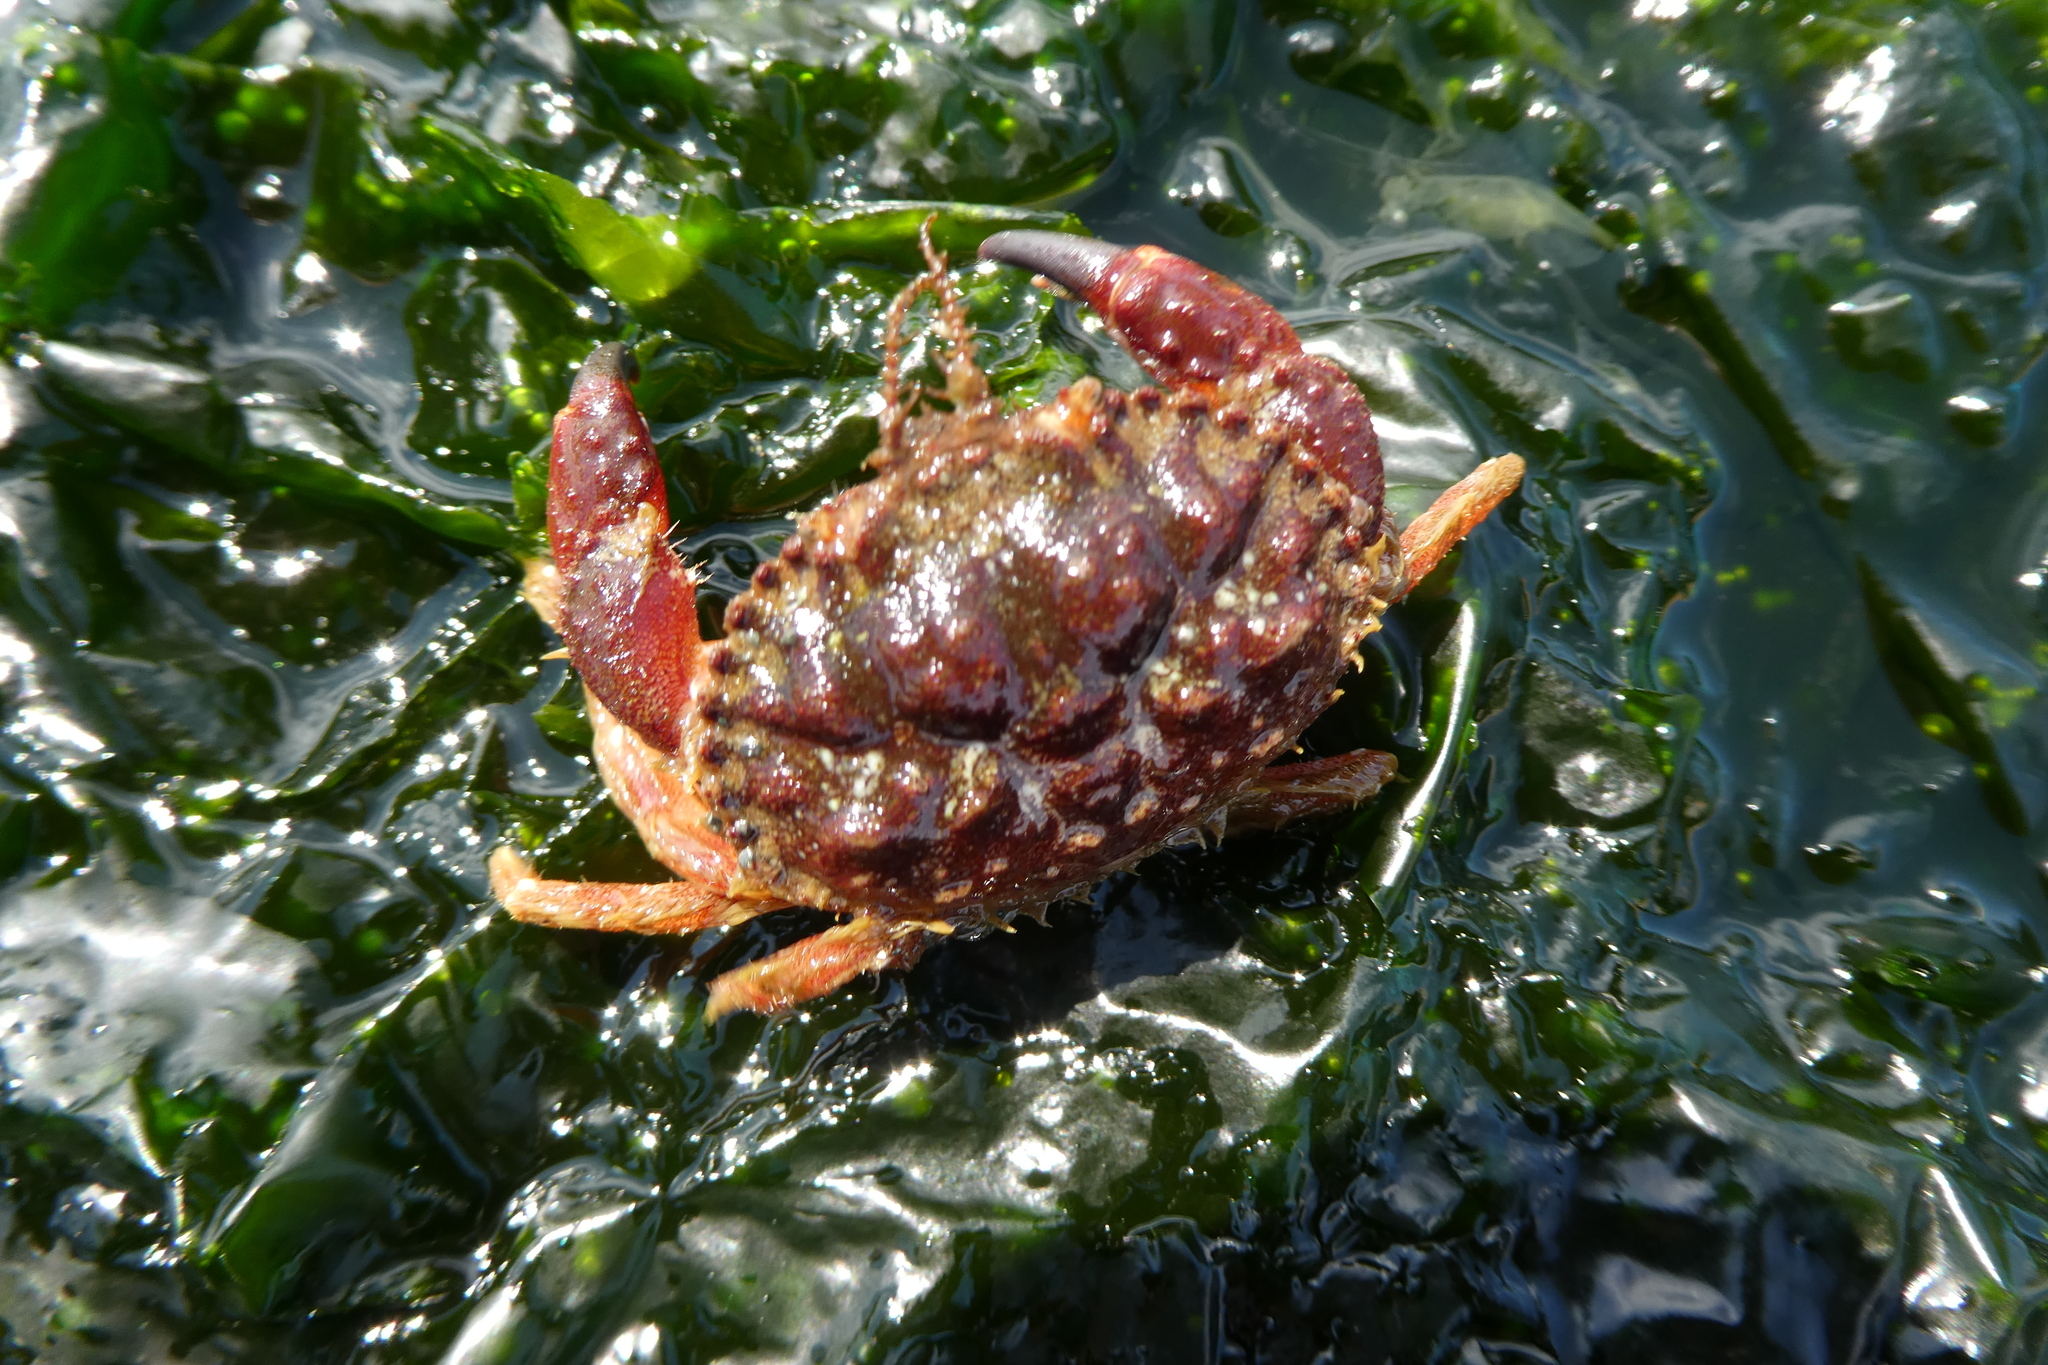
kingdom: Animalia
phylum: Arthropoda
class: Malacostraca
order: Decapoda
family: Cancridae
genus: Glebocarcinus
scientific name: Glebocarcinus oregonensis
